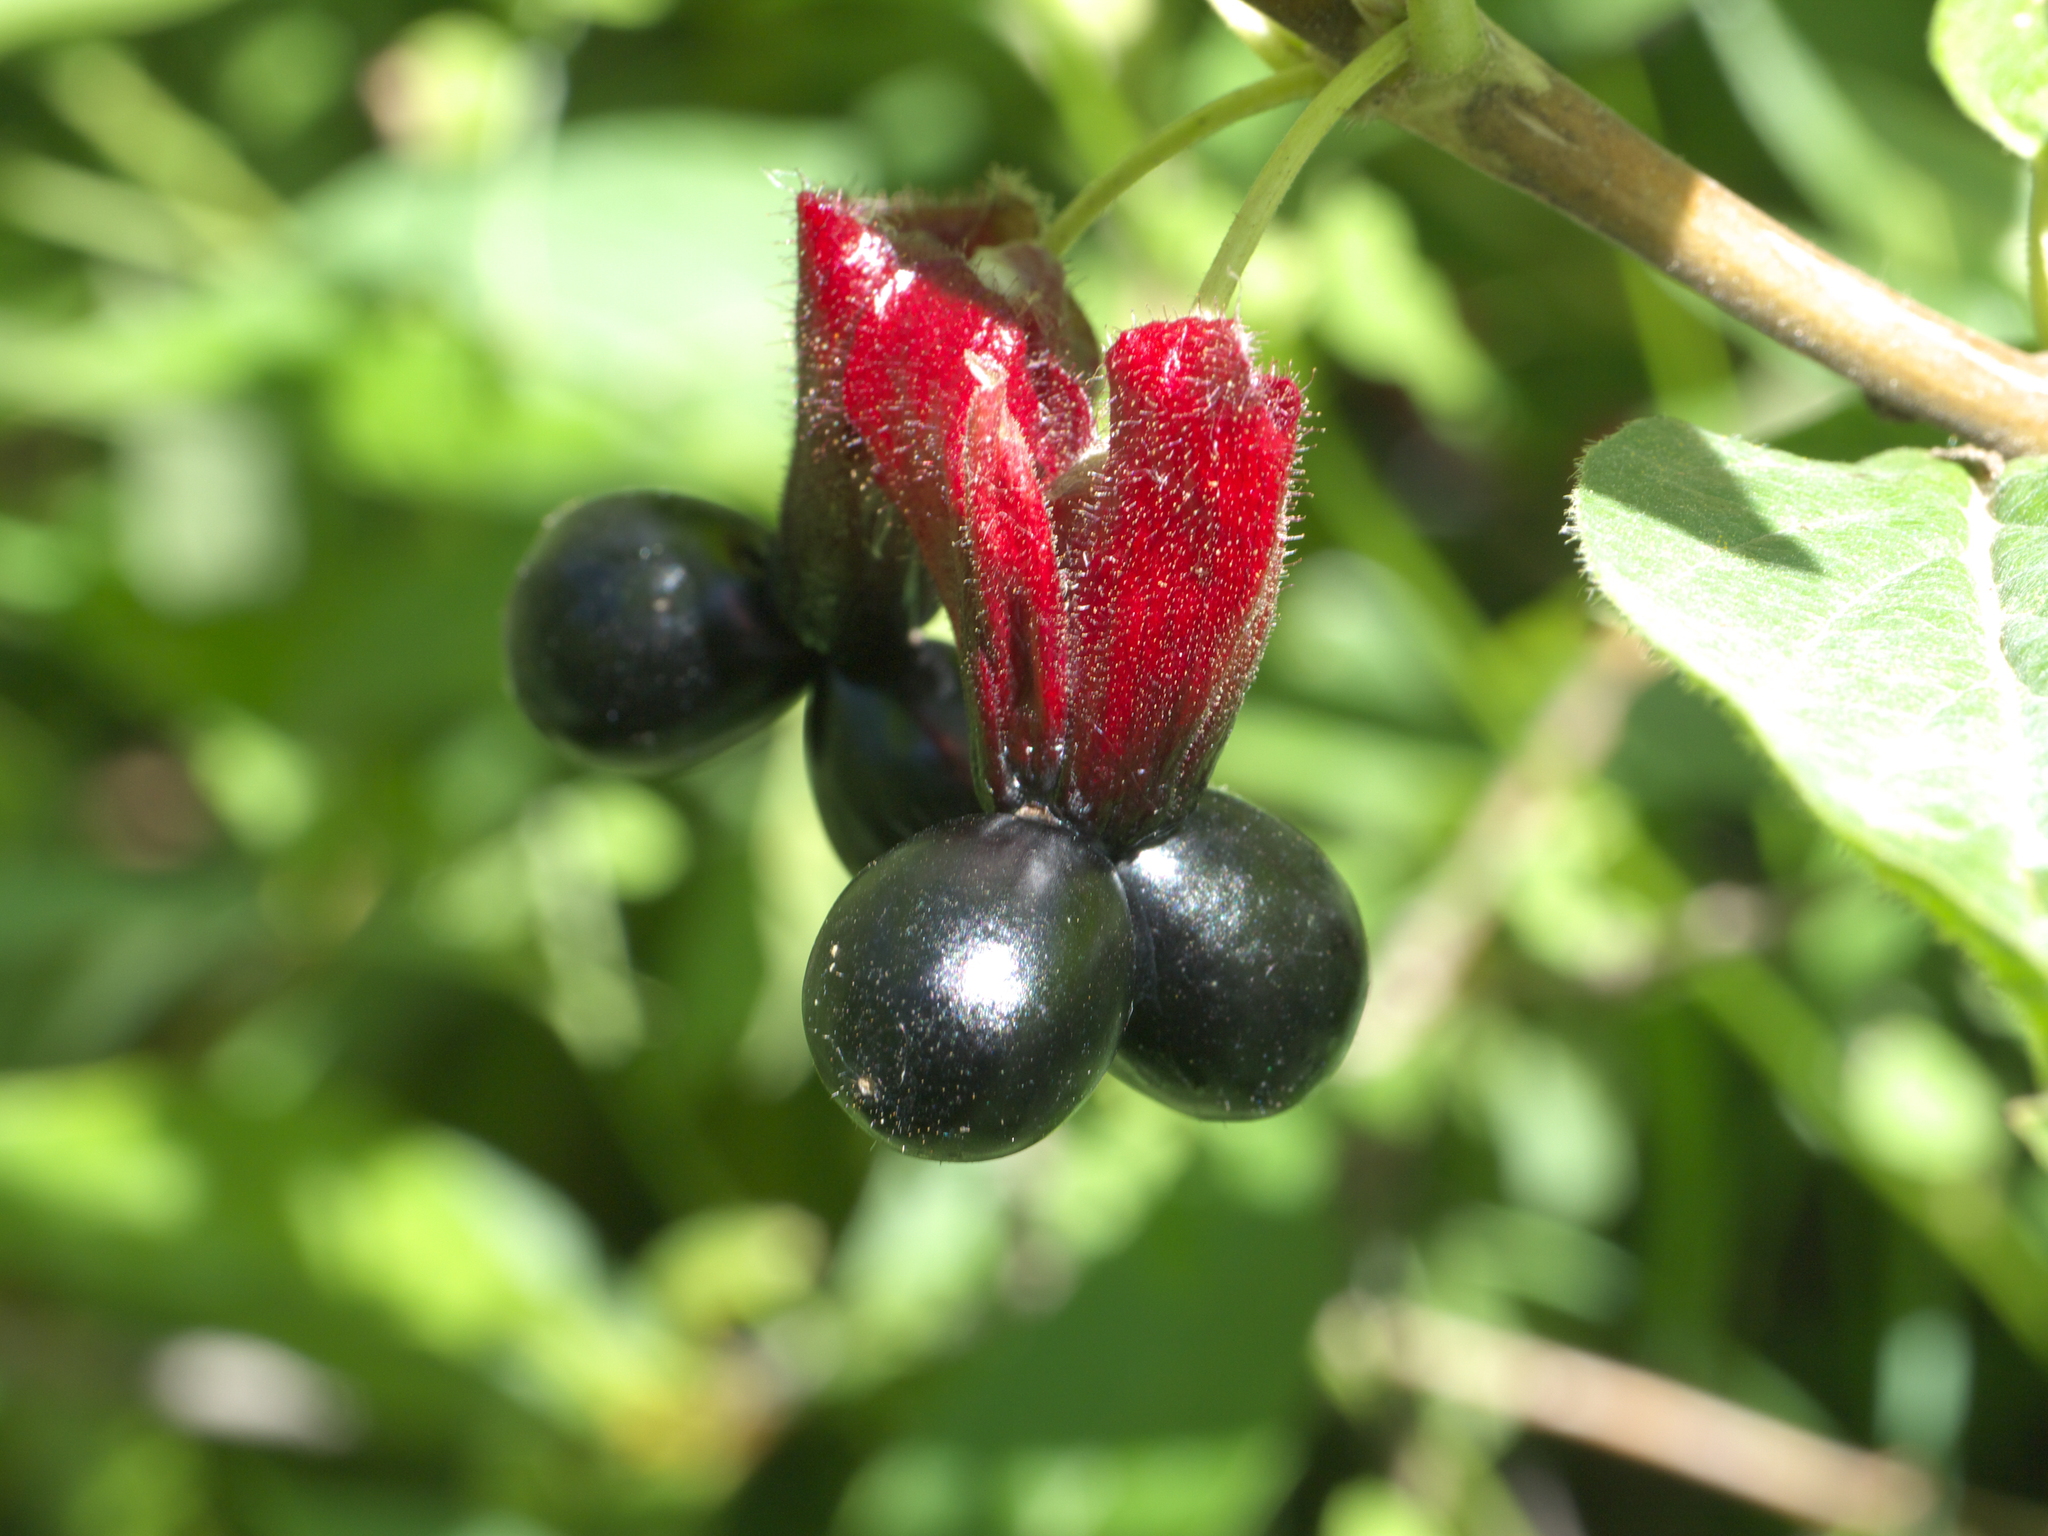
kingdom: Plantae
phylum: Tracheophyta
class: Magnoliopsida
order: Dipsacales
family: Caprifoliaceae
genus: Lonicera
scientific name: Lonicera involucrata
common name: Californian honeysuckle
